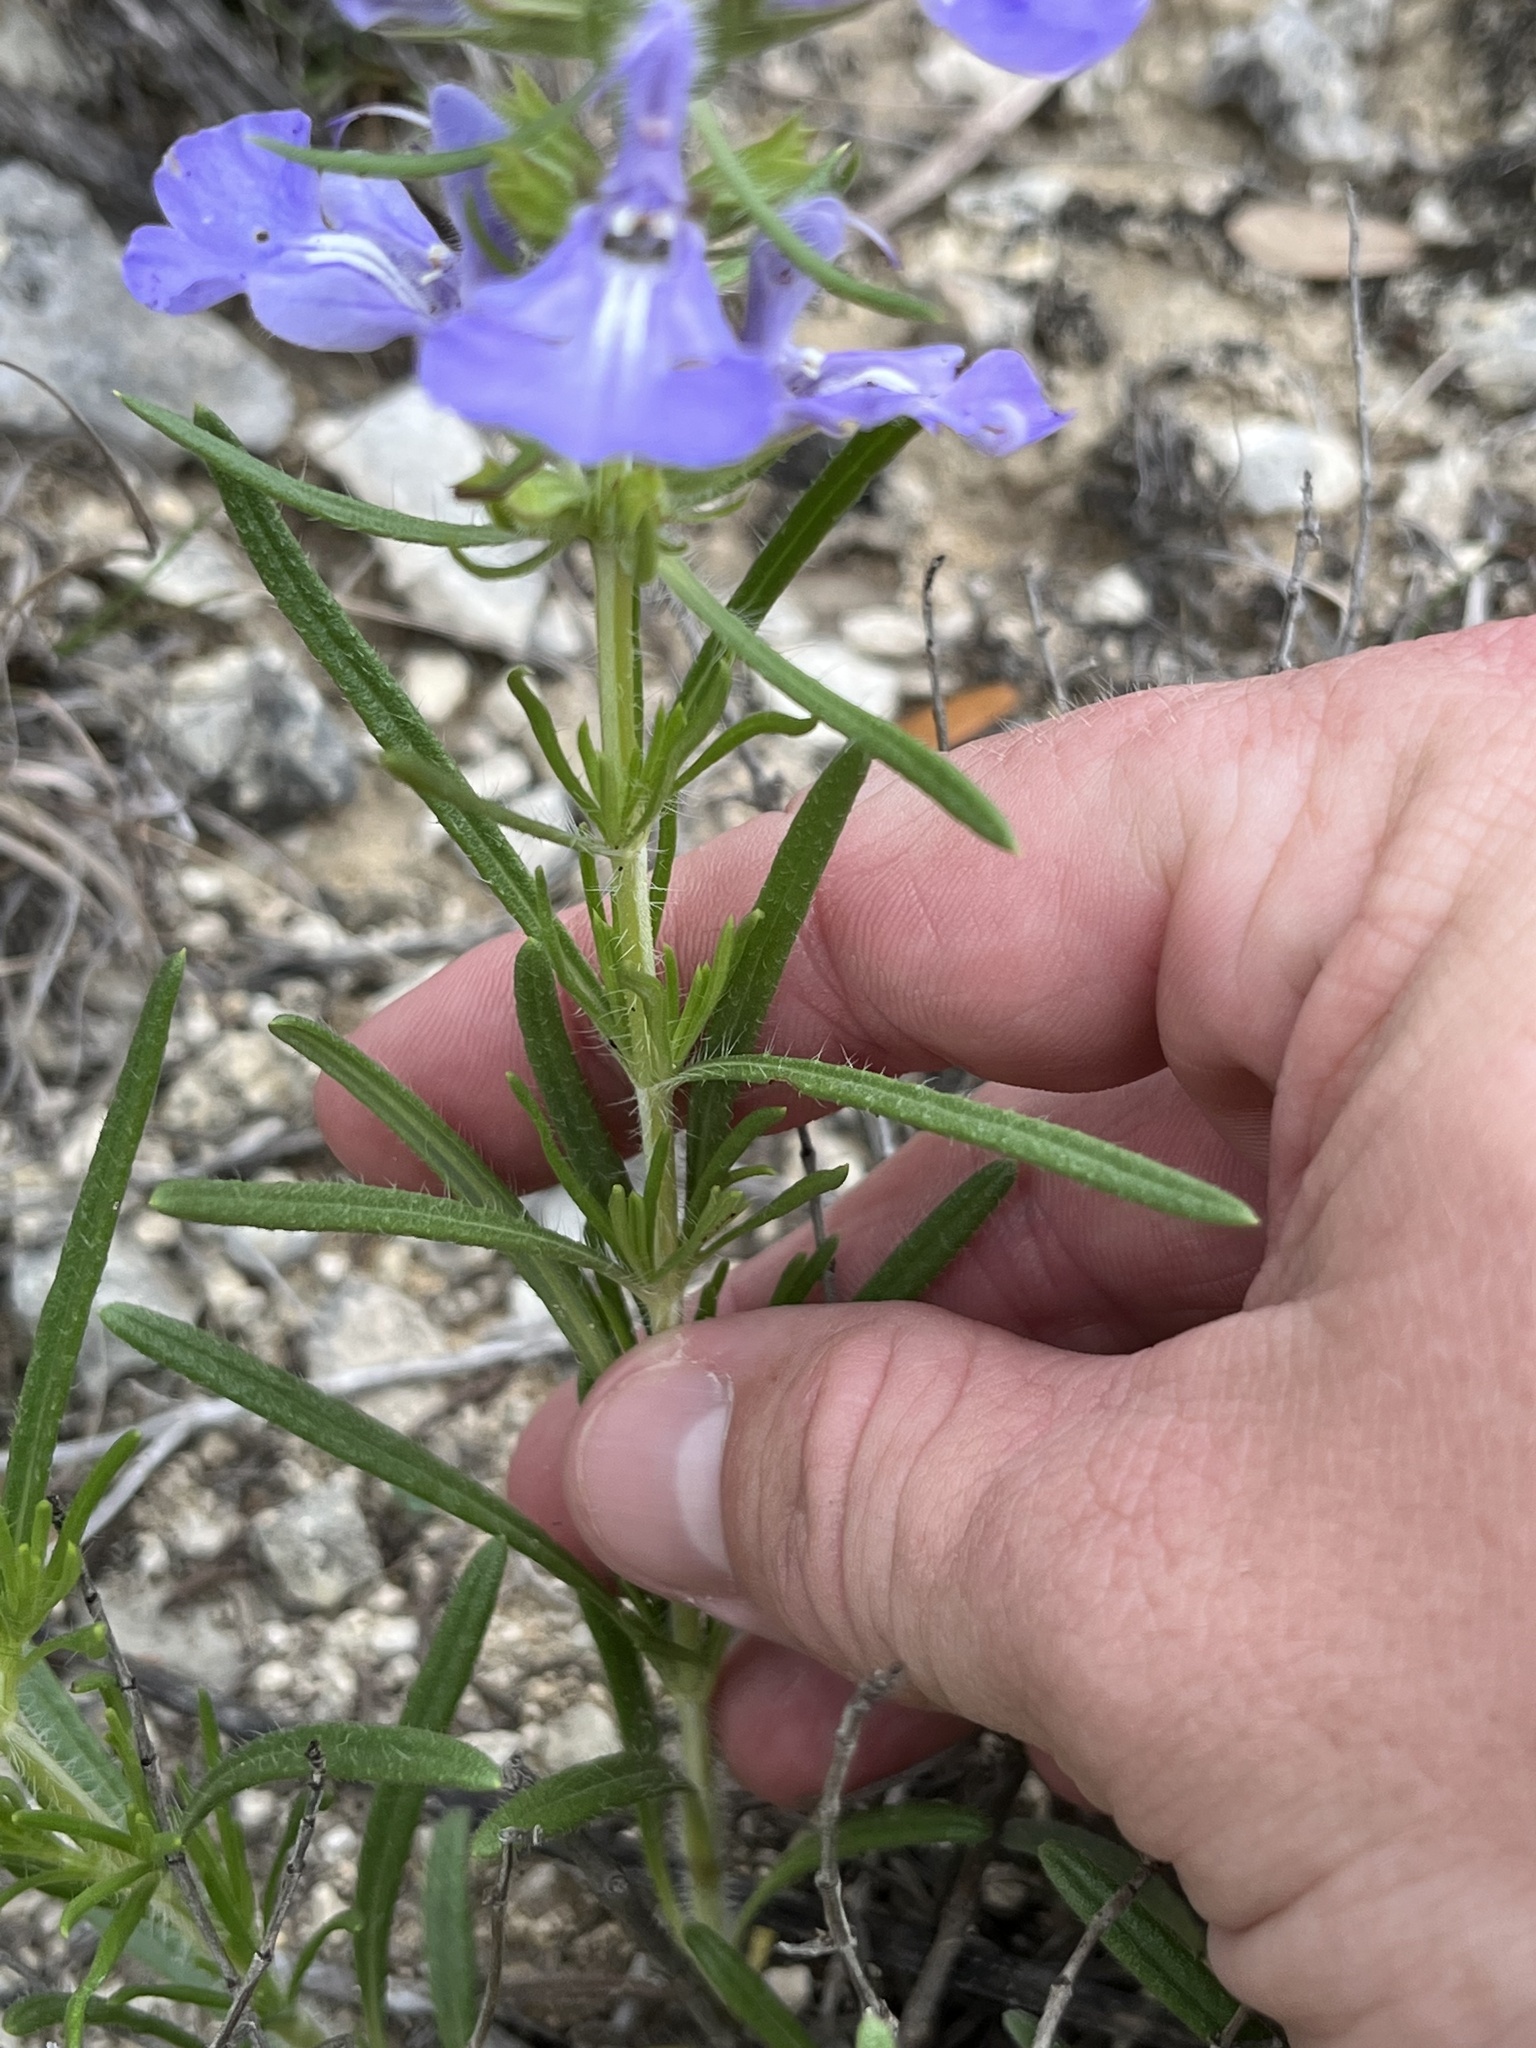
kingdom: Plantae
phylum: Tracheophyta
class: Magnoliopsida
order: Lamiales
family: Lamiaceae
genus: Salvia
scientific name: Salvia engelmannii
